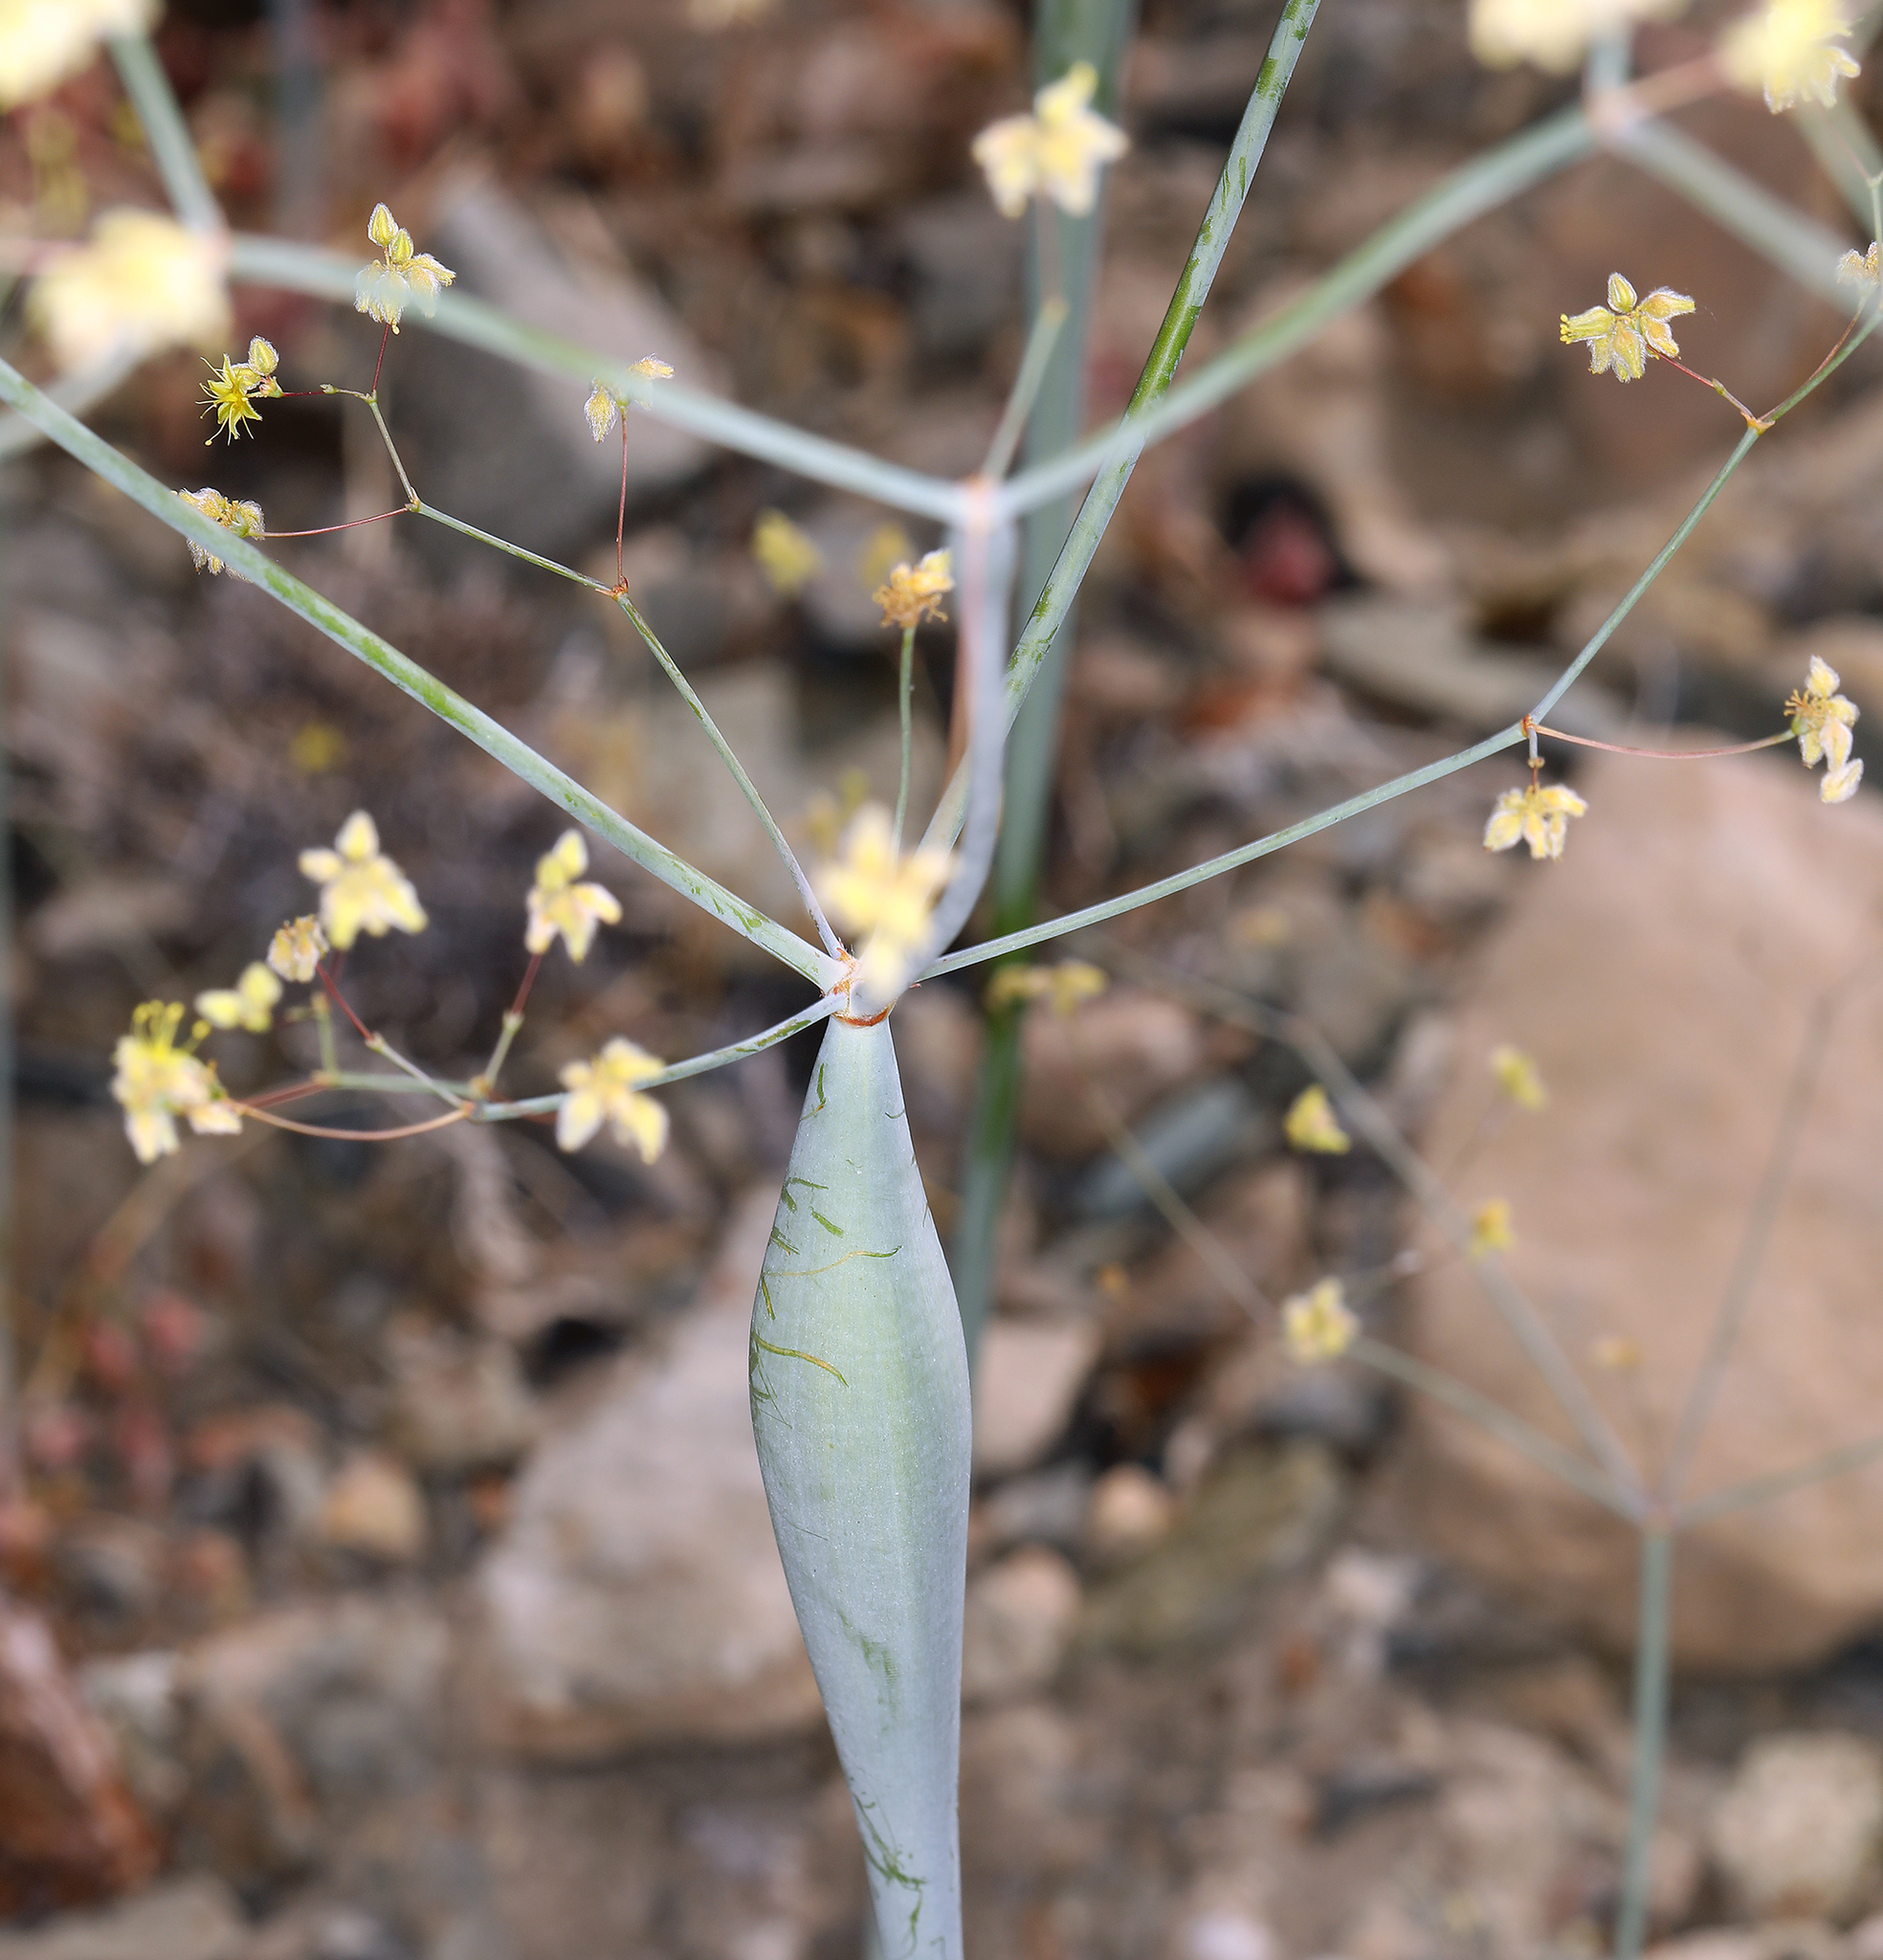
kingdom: Plantae
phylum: Tracheophyta
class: Magnoliopsida
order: Caryophyllales
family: Polygonaceae
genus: Eriogonum
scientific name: Eriogonum inflatum
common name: Desert trumpet
